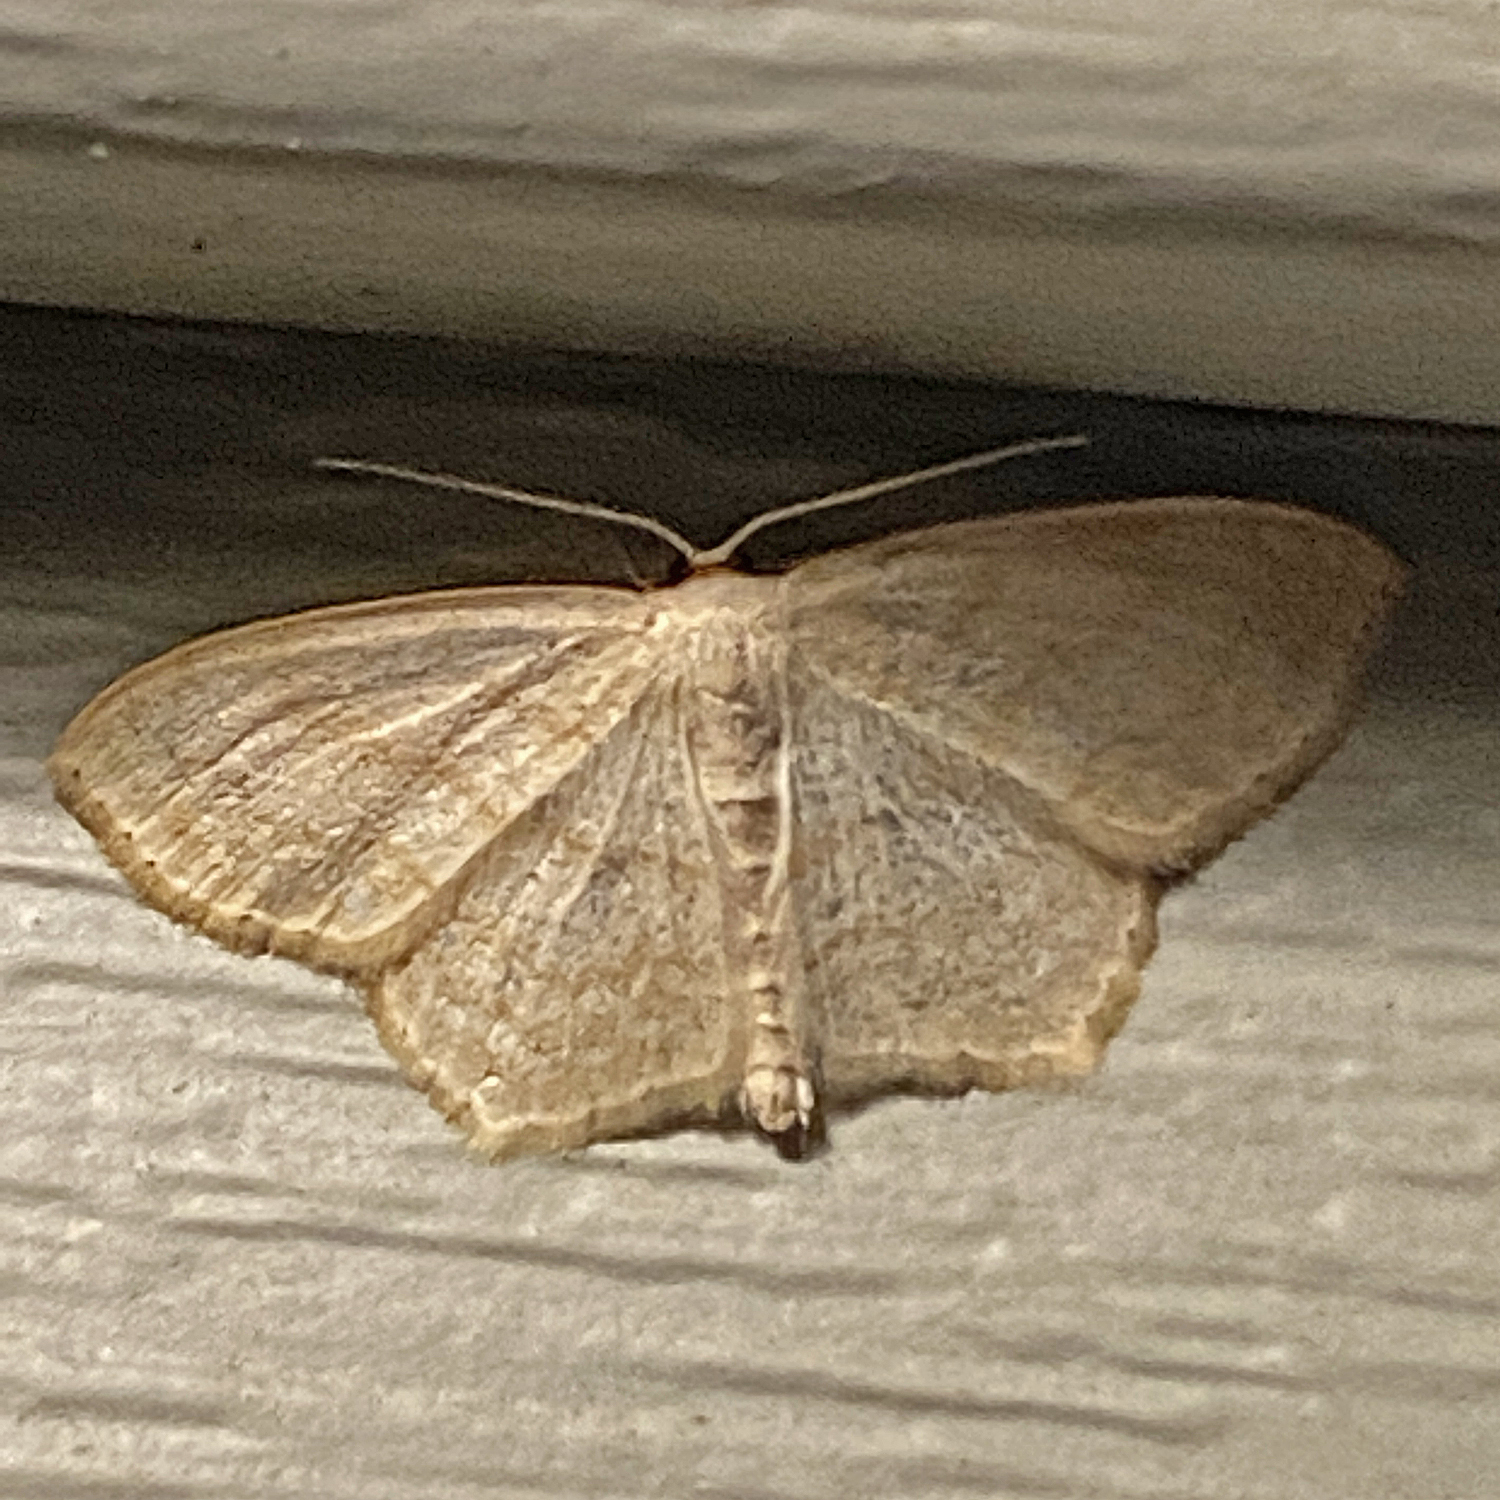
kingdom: Animalia
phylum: Arthropoda
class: Insecta
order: Lepidoptera
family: Geometridae
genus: Scopula
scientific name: Scopula limboundata
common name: Large lace border
